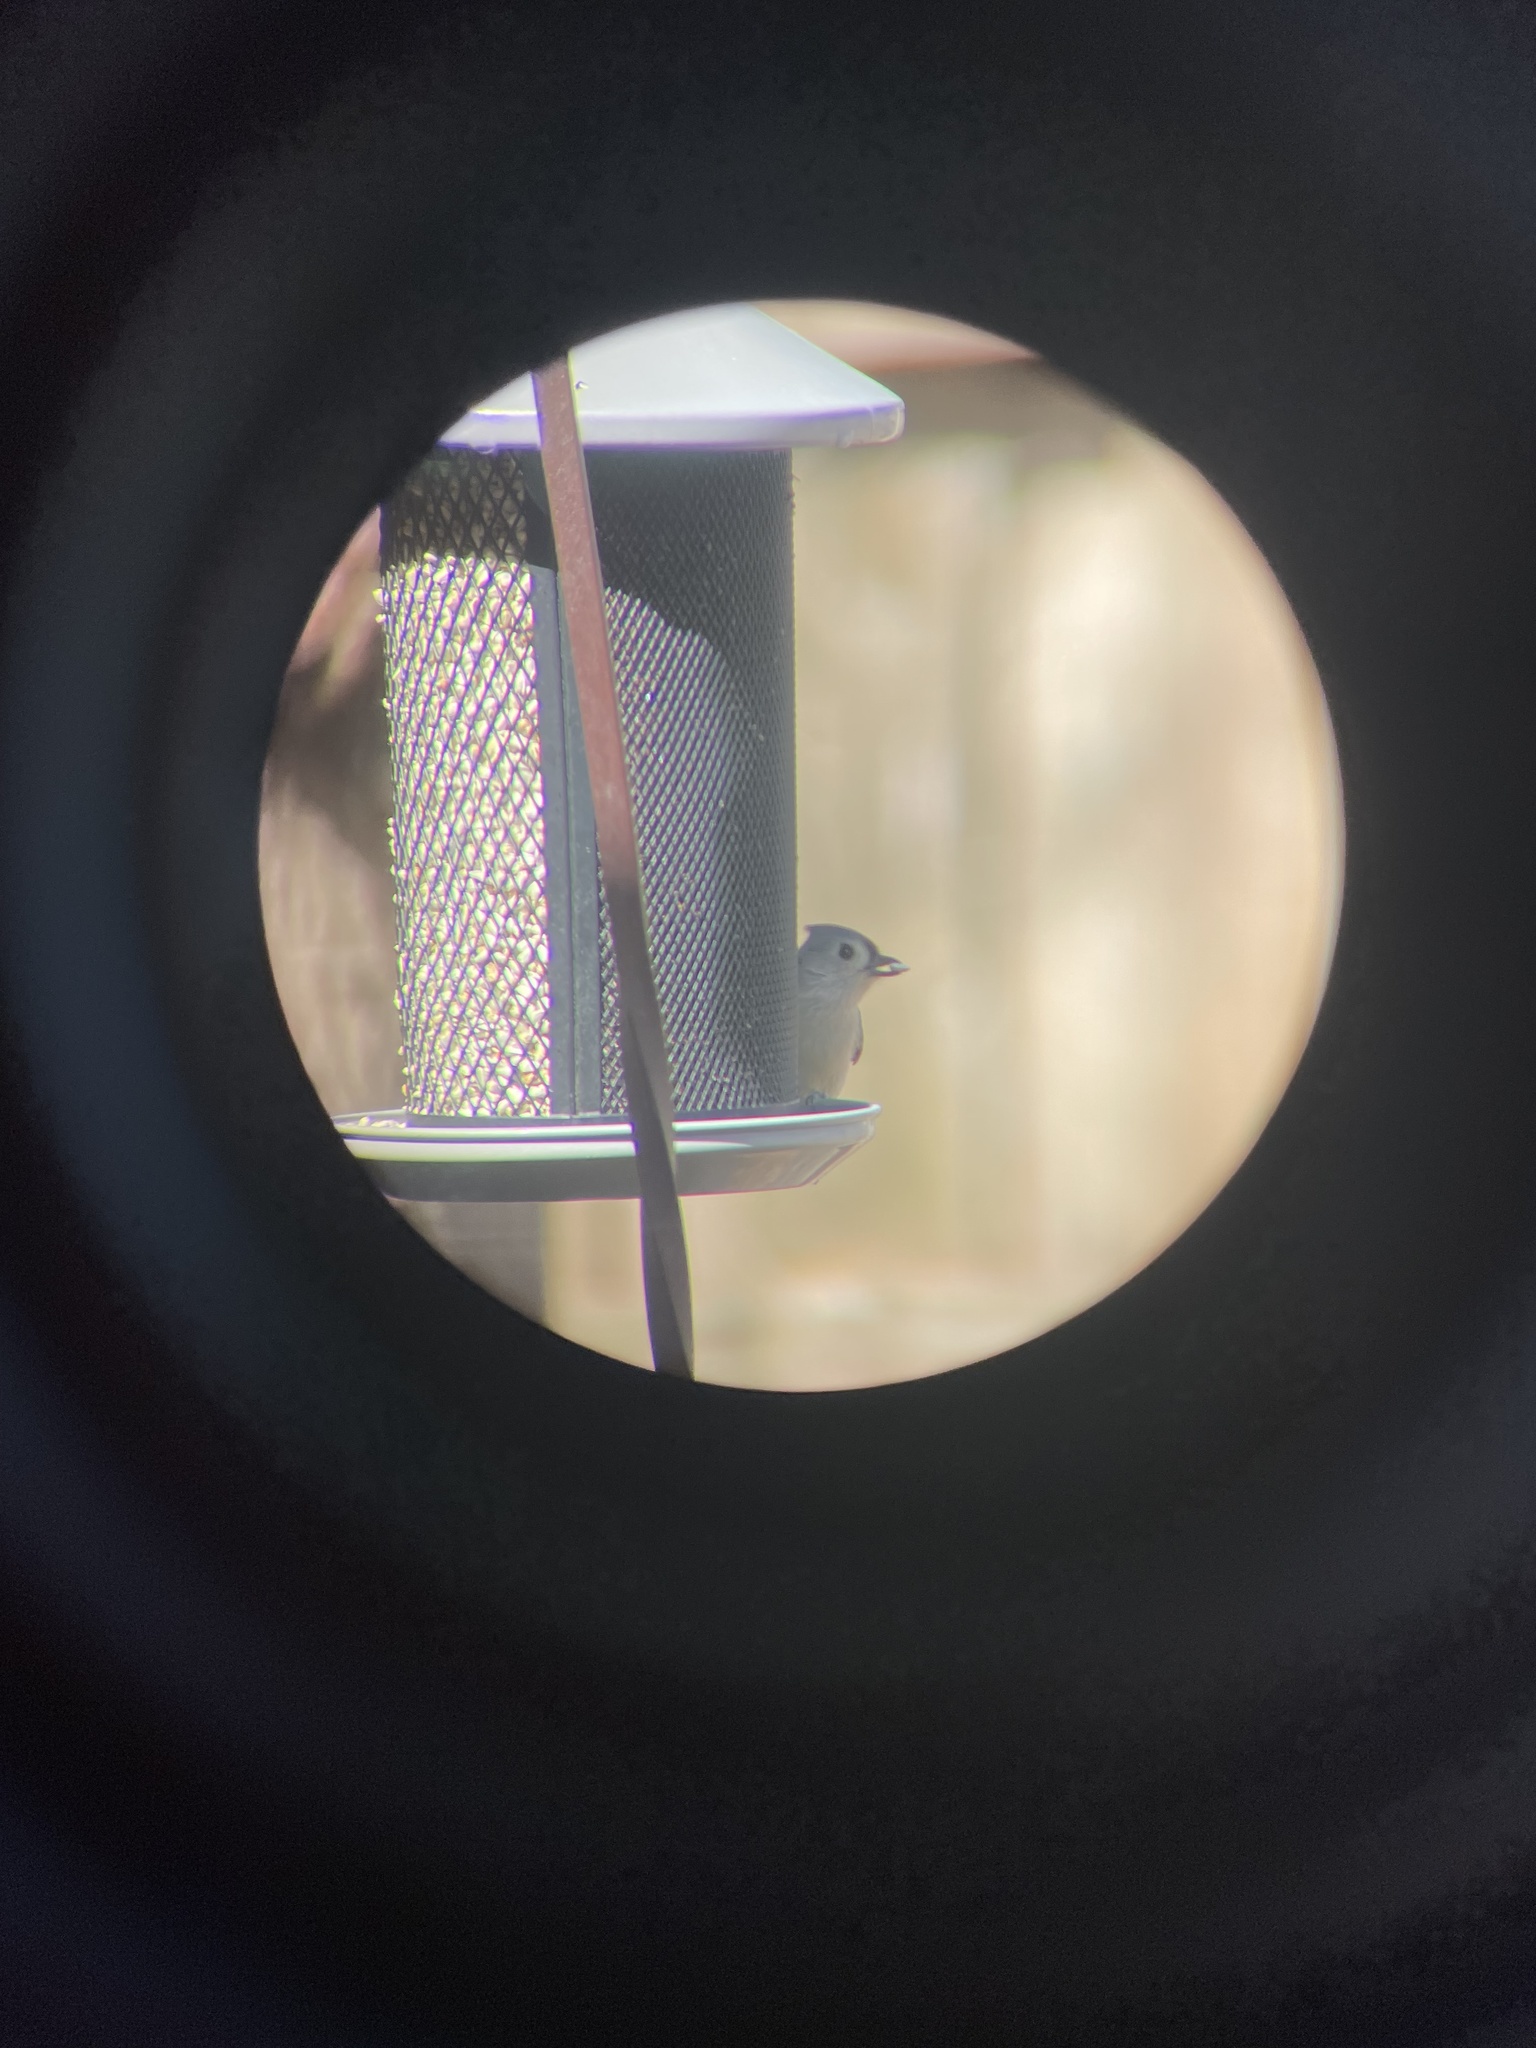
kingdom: Animalia
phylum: Chordata
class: Aves
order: Passeriformes
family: Paridae
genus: Baeolophus
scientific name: Baeolophus bicolor
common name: Tufted titmouse
